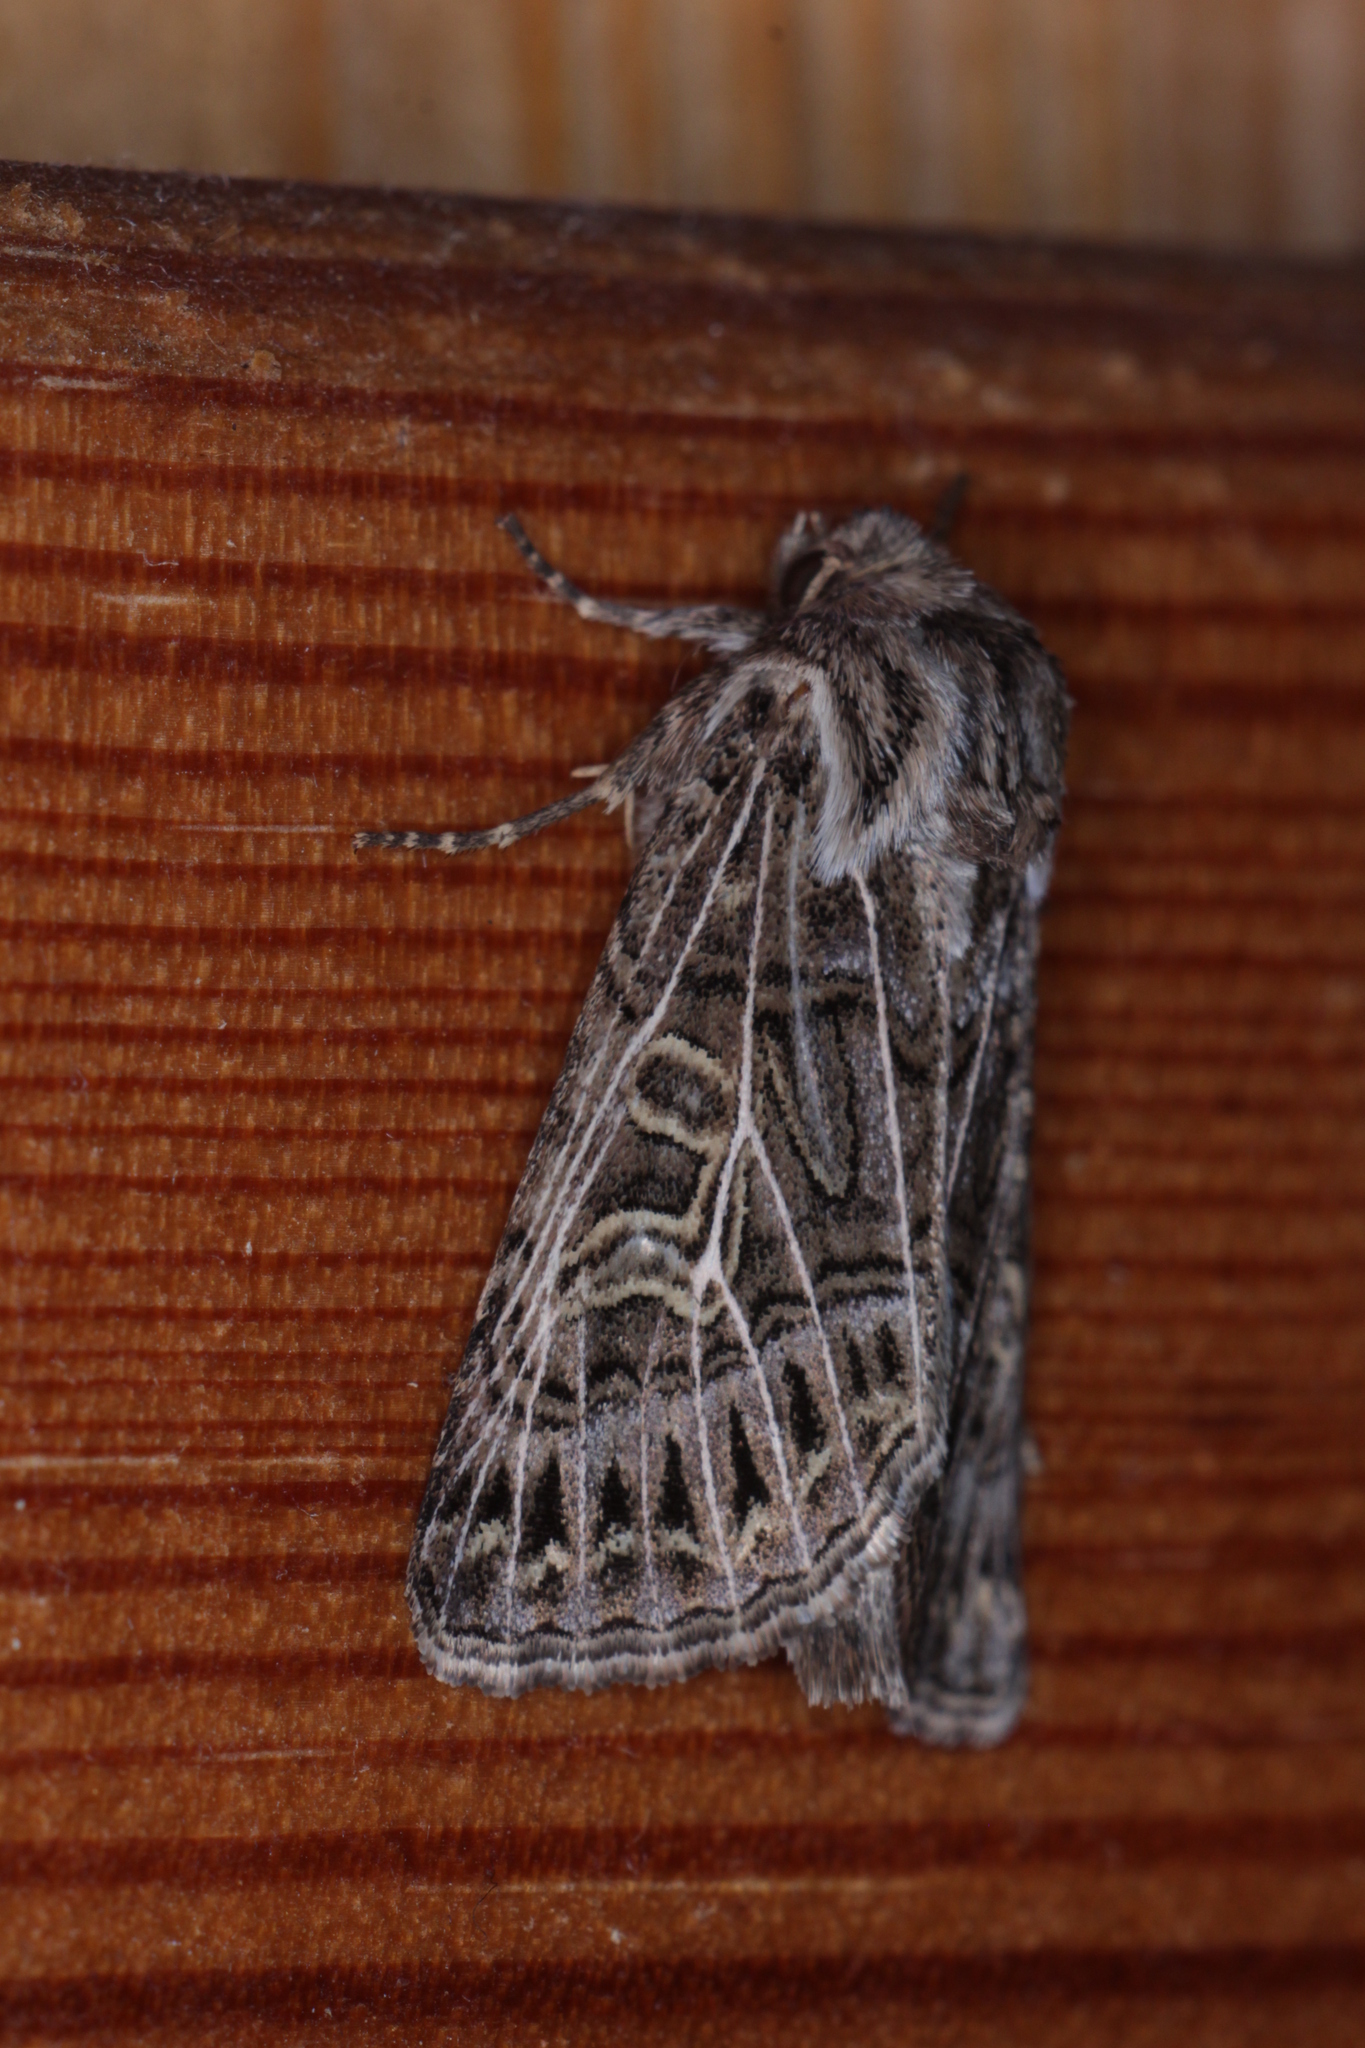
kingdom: Animalia
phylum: Arthropoda
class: Insecta
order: Lepidoptera
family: Noctuidae
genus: Tholera
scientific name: Tholera decimalis
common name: Feathered gothic
